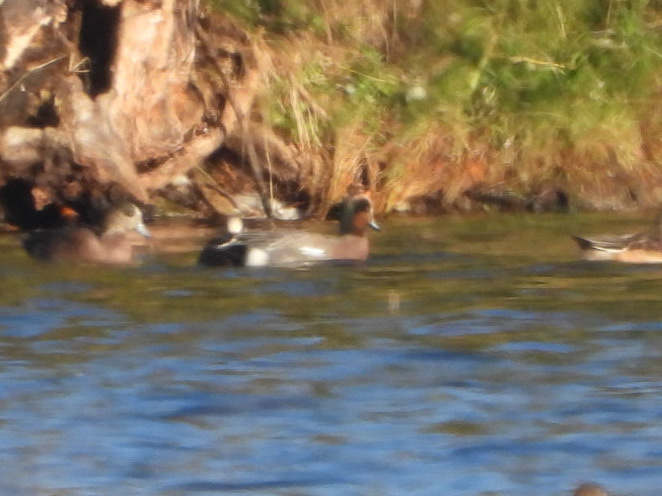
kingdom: Animalia
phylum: Chordata
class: Aves
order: Anseriformes
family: Anatidae
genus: Mareca
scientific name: Mareca
